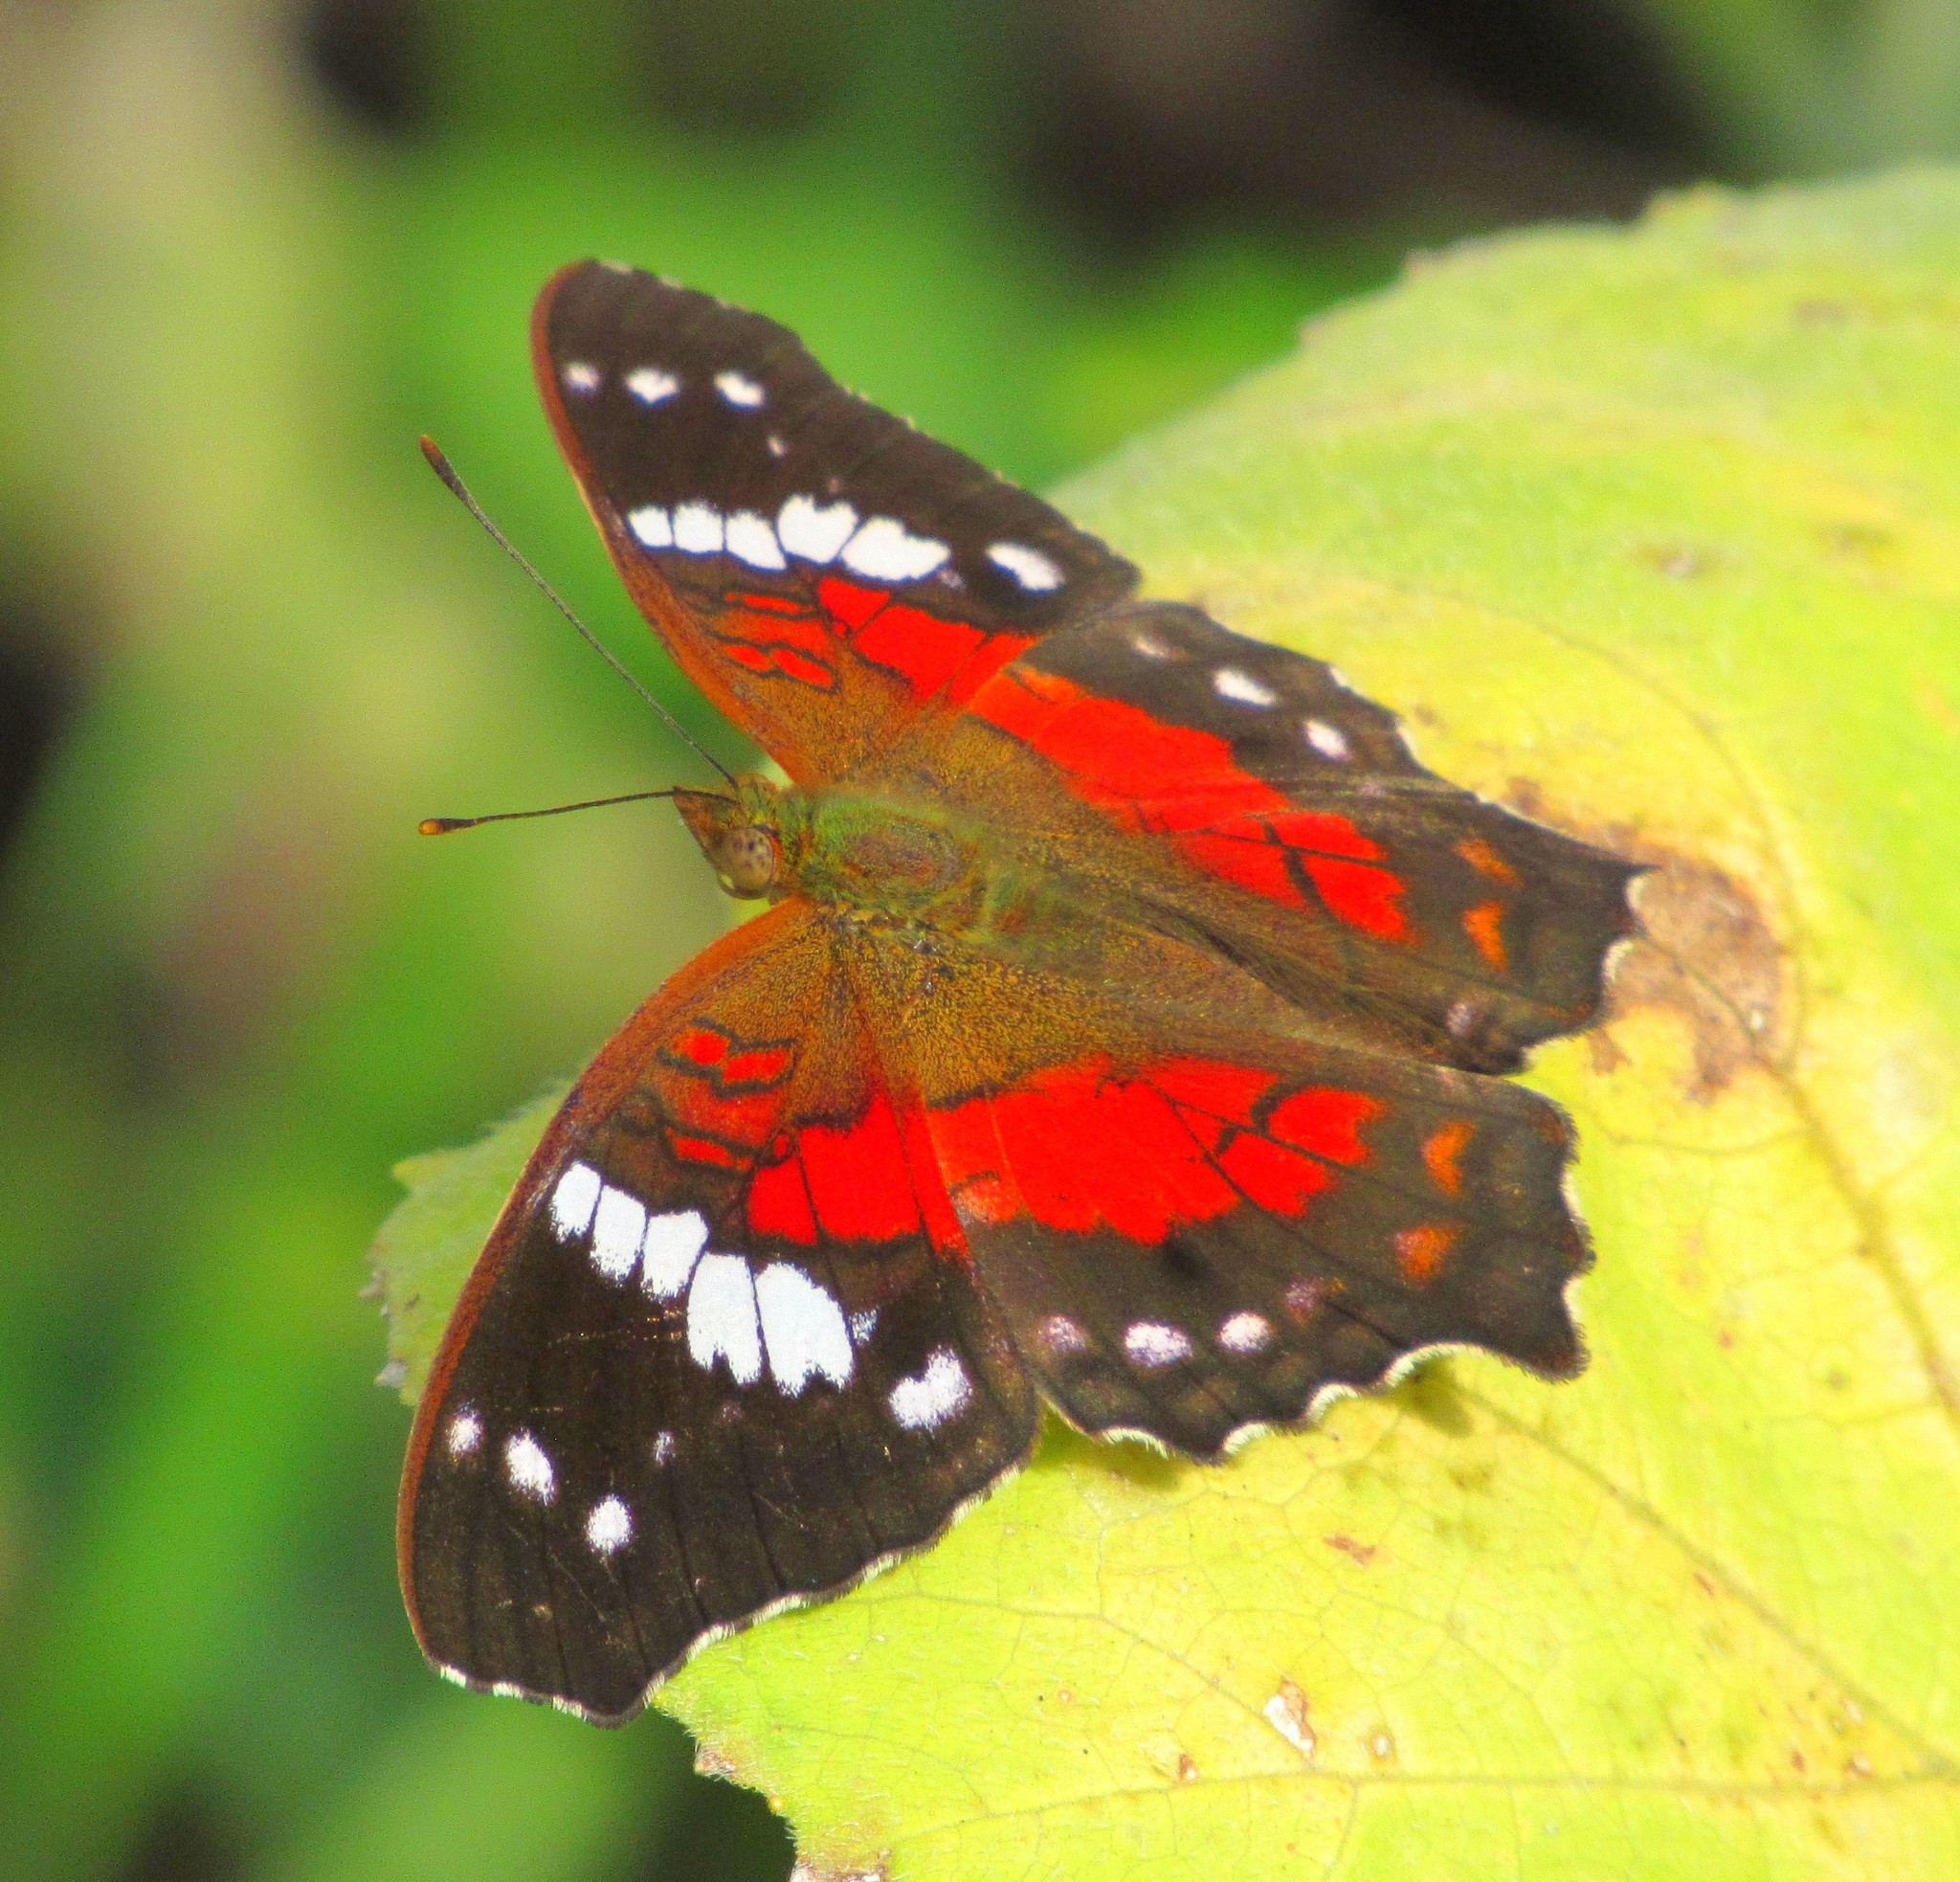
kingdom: Animalia
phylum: Arthropoda
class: Insecta
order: Lepidoptera
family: Nymphalidae
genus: Anartia
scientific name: Anartia amathea
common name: Red peacock
